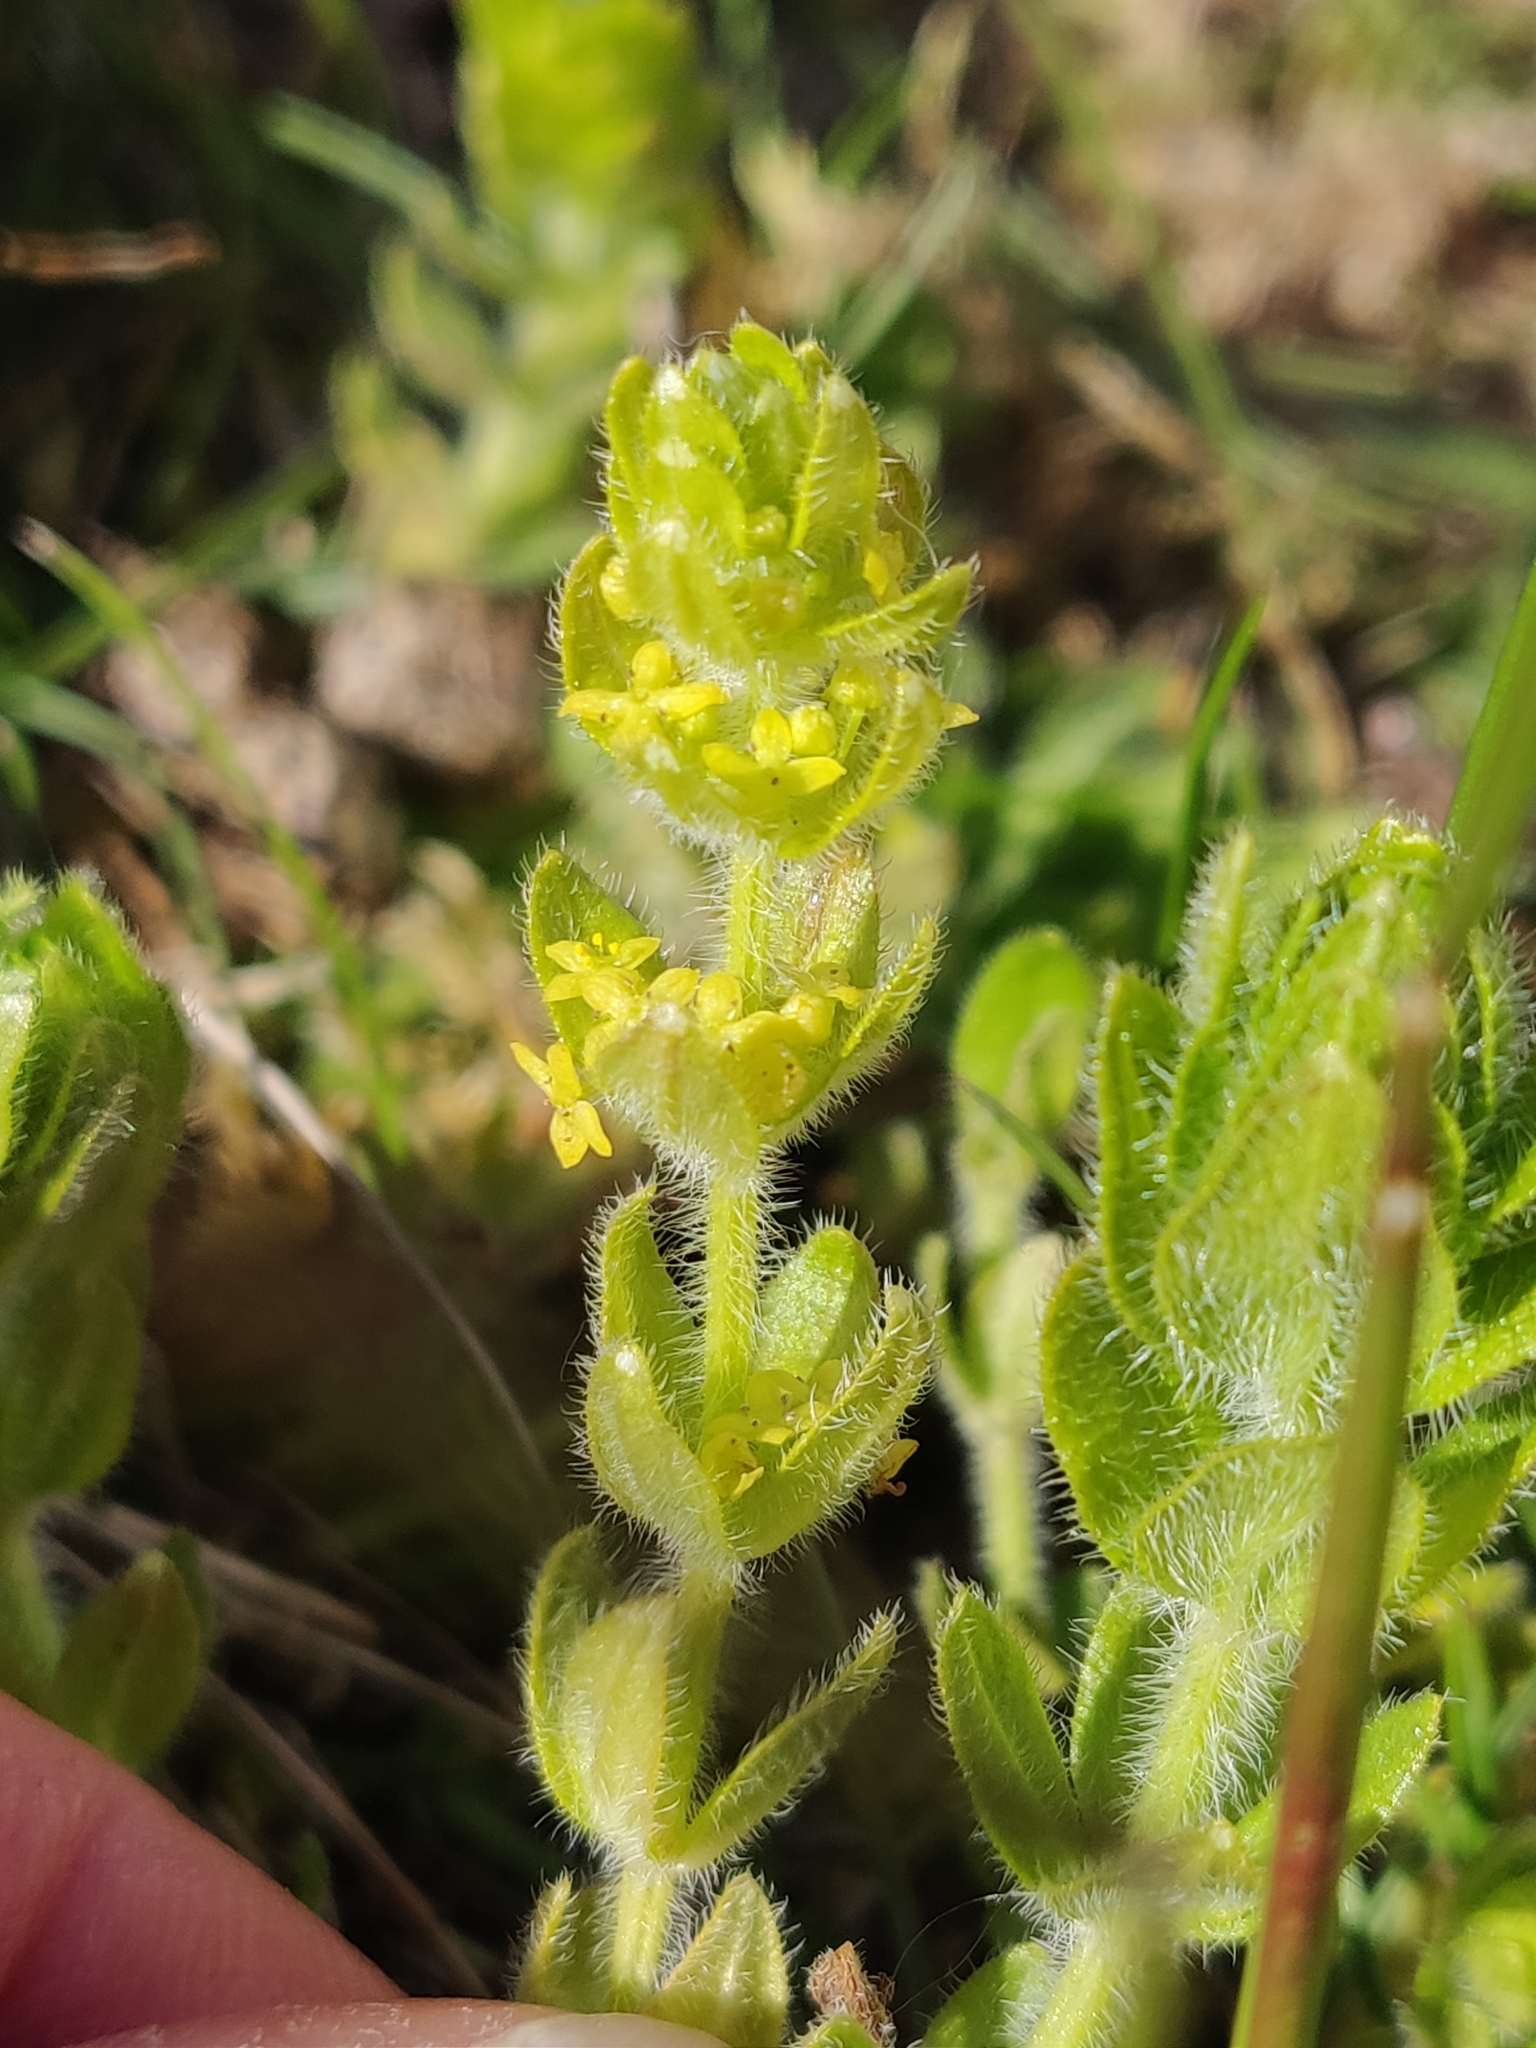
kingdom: Plantae
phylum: Tracheophyta
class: Magnoliopsida
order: Gentianales
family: Rubiaceae
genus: Cruciata
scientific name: Cruciata laevipes
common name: Crosswort
